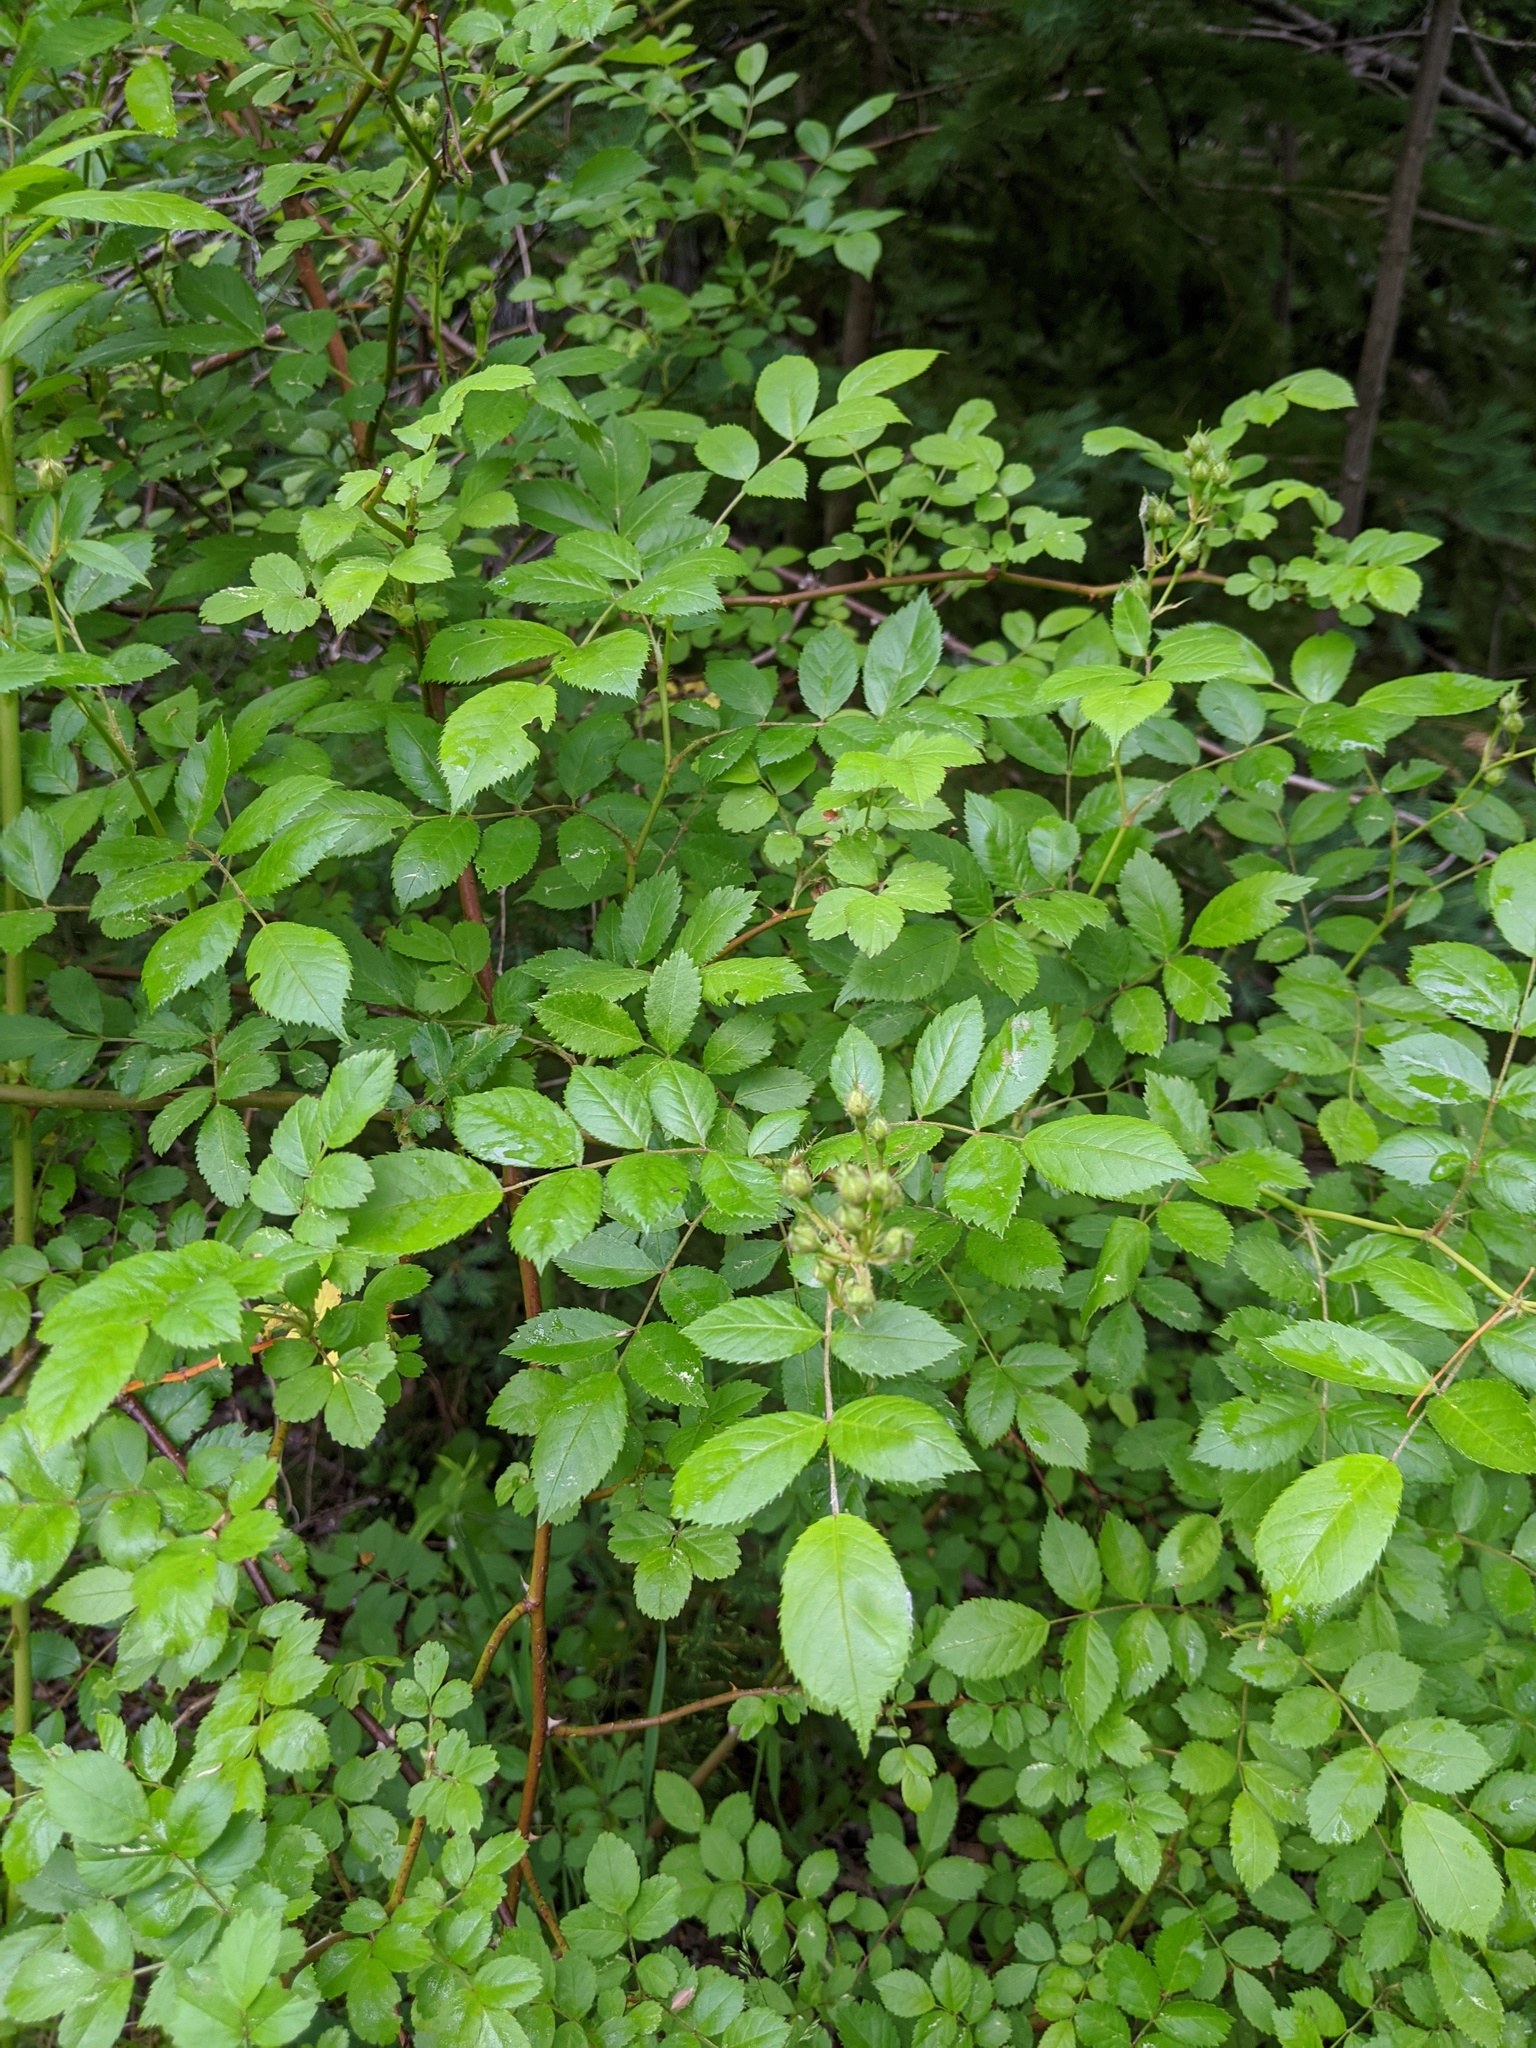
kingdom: Plantae
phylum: Tracheophyta
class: Magnoliopsida
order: Rosales
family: Rosaceae
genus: Rosa
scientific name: Rosa multiflora
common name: Multiflora rose
